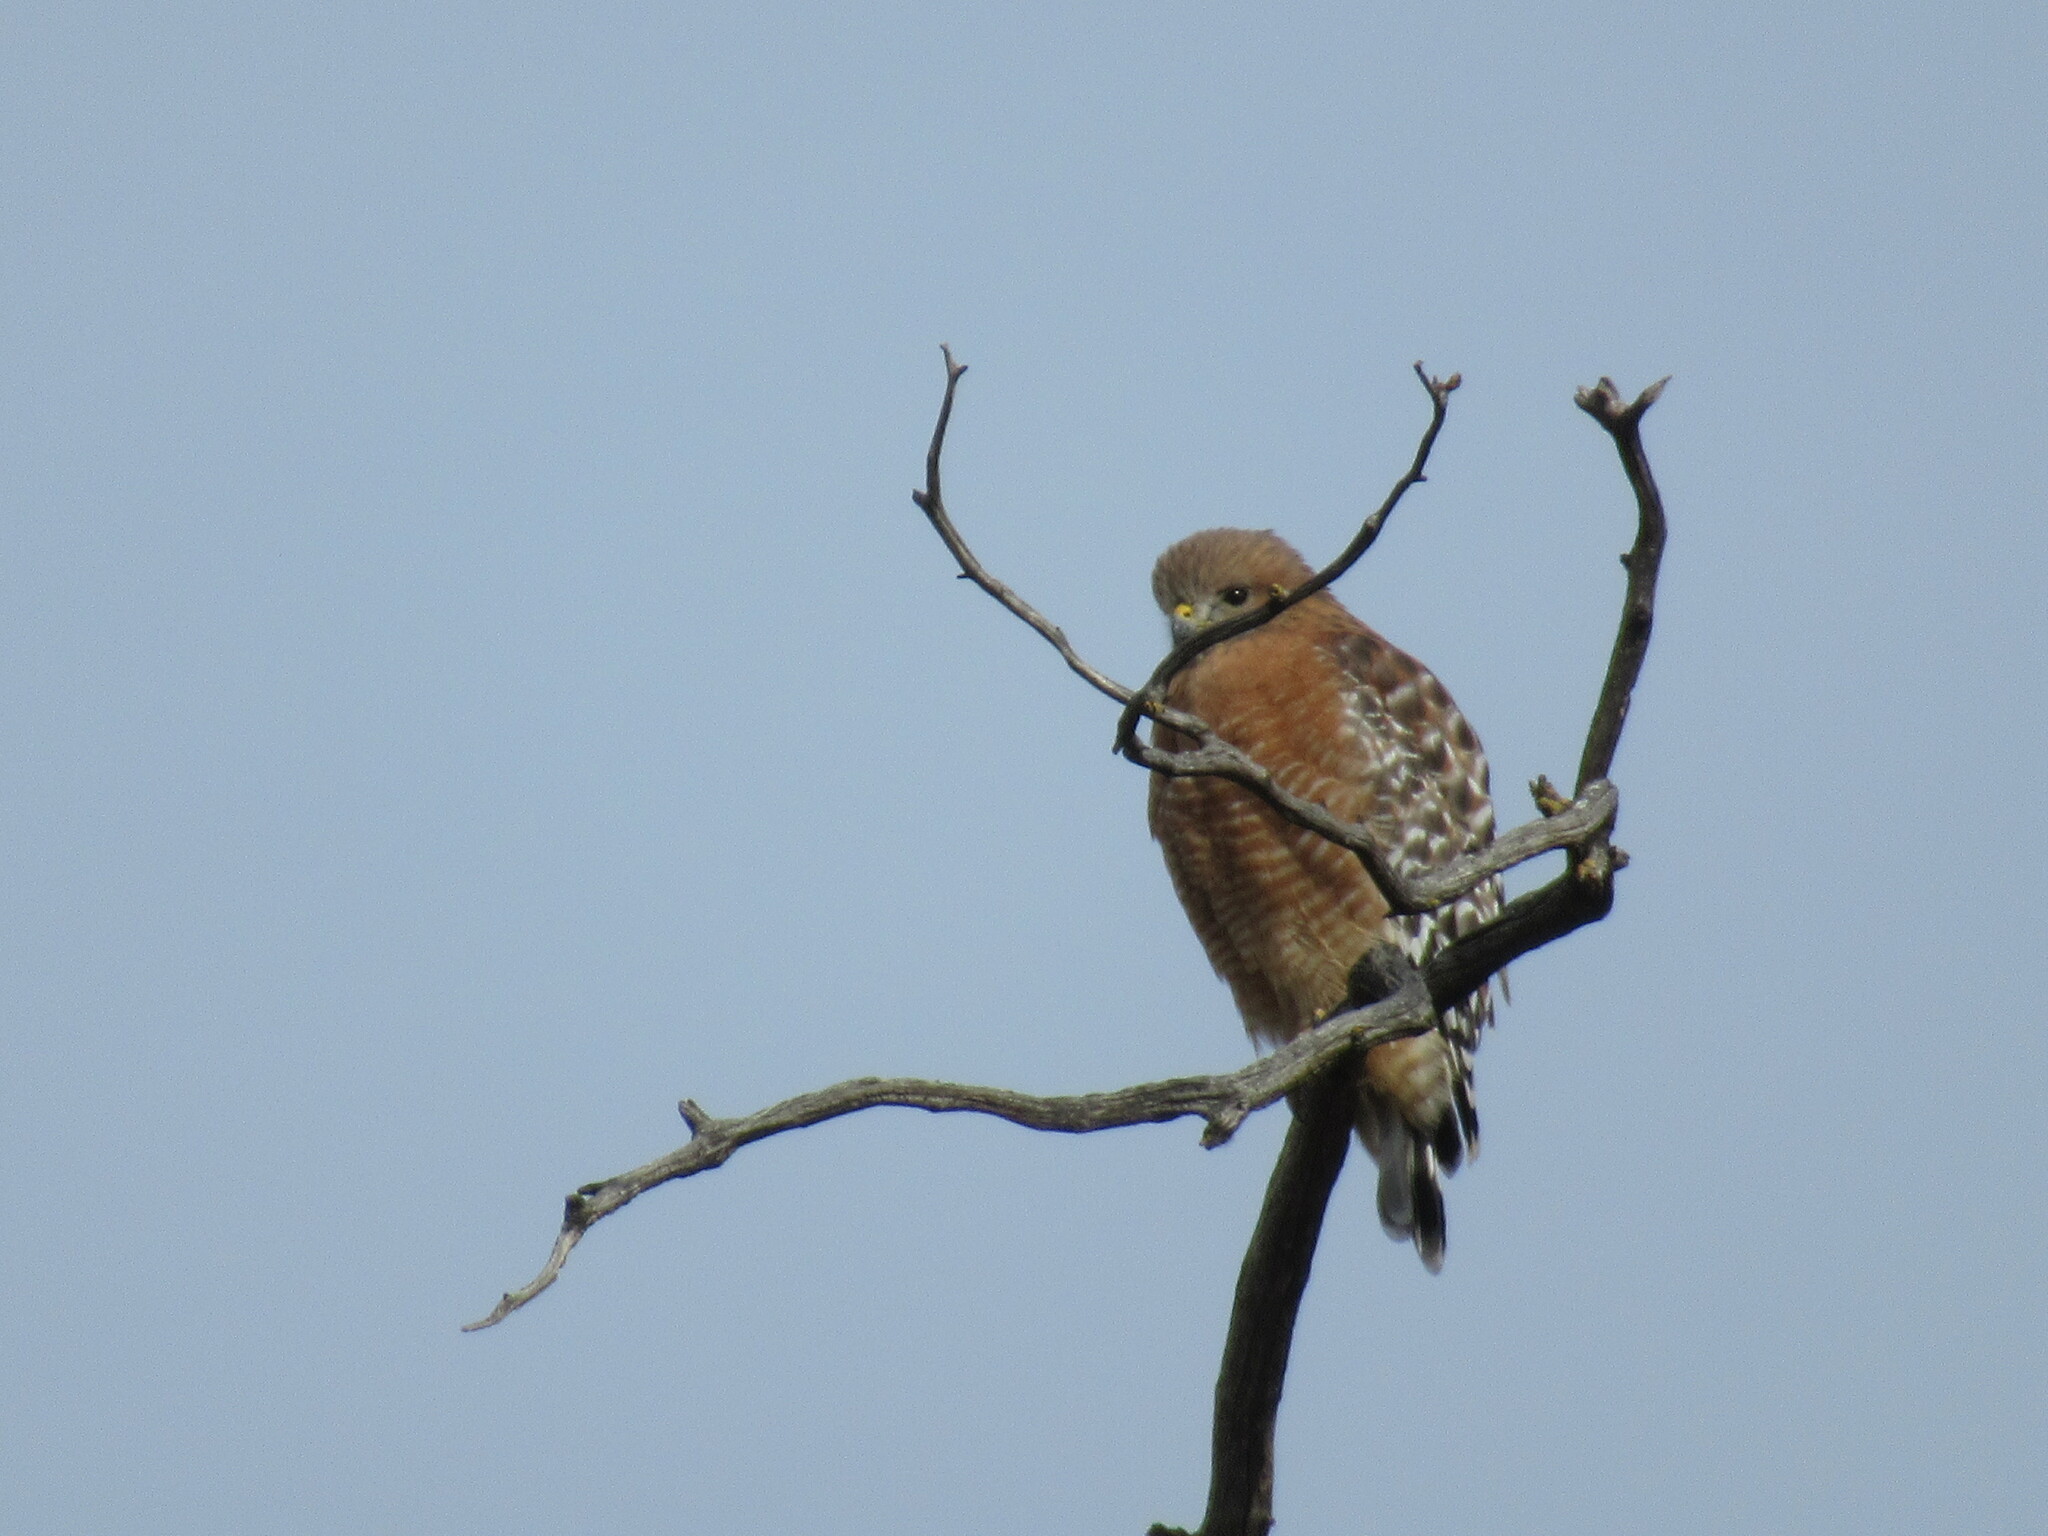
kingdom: Animalia
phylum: Chordata
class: Aves
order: Accipitriformes
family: Accipitridae
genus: Buteo
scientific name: Buteo lineatus
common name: Red-shouldered hawk
